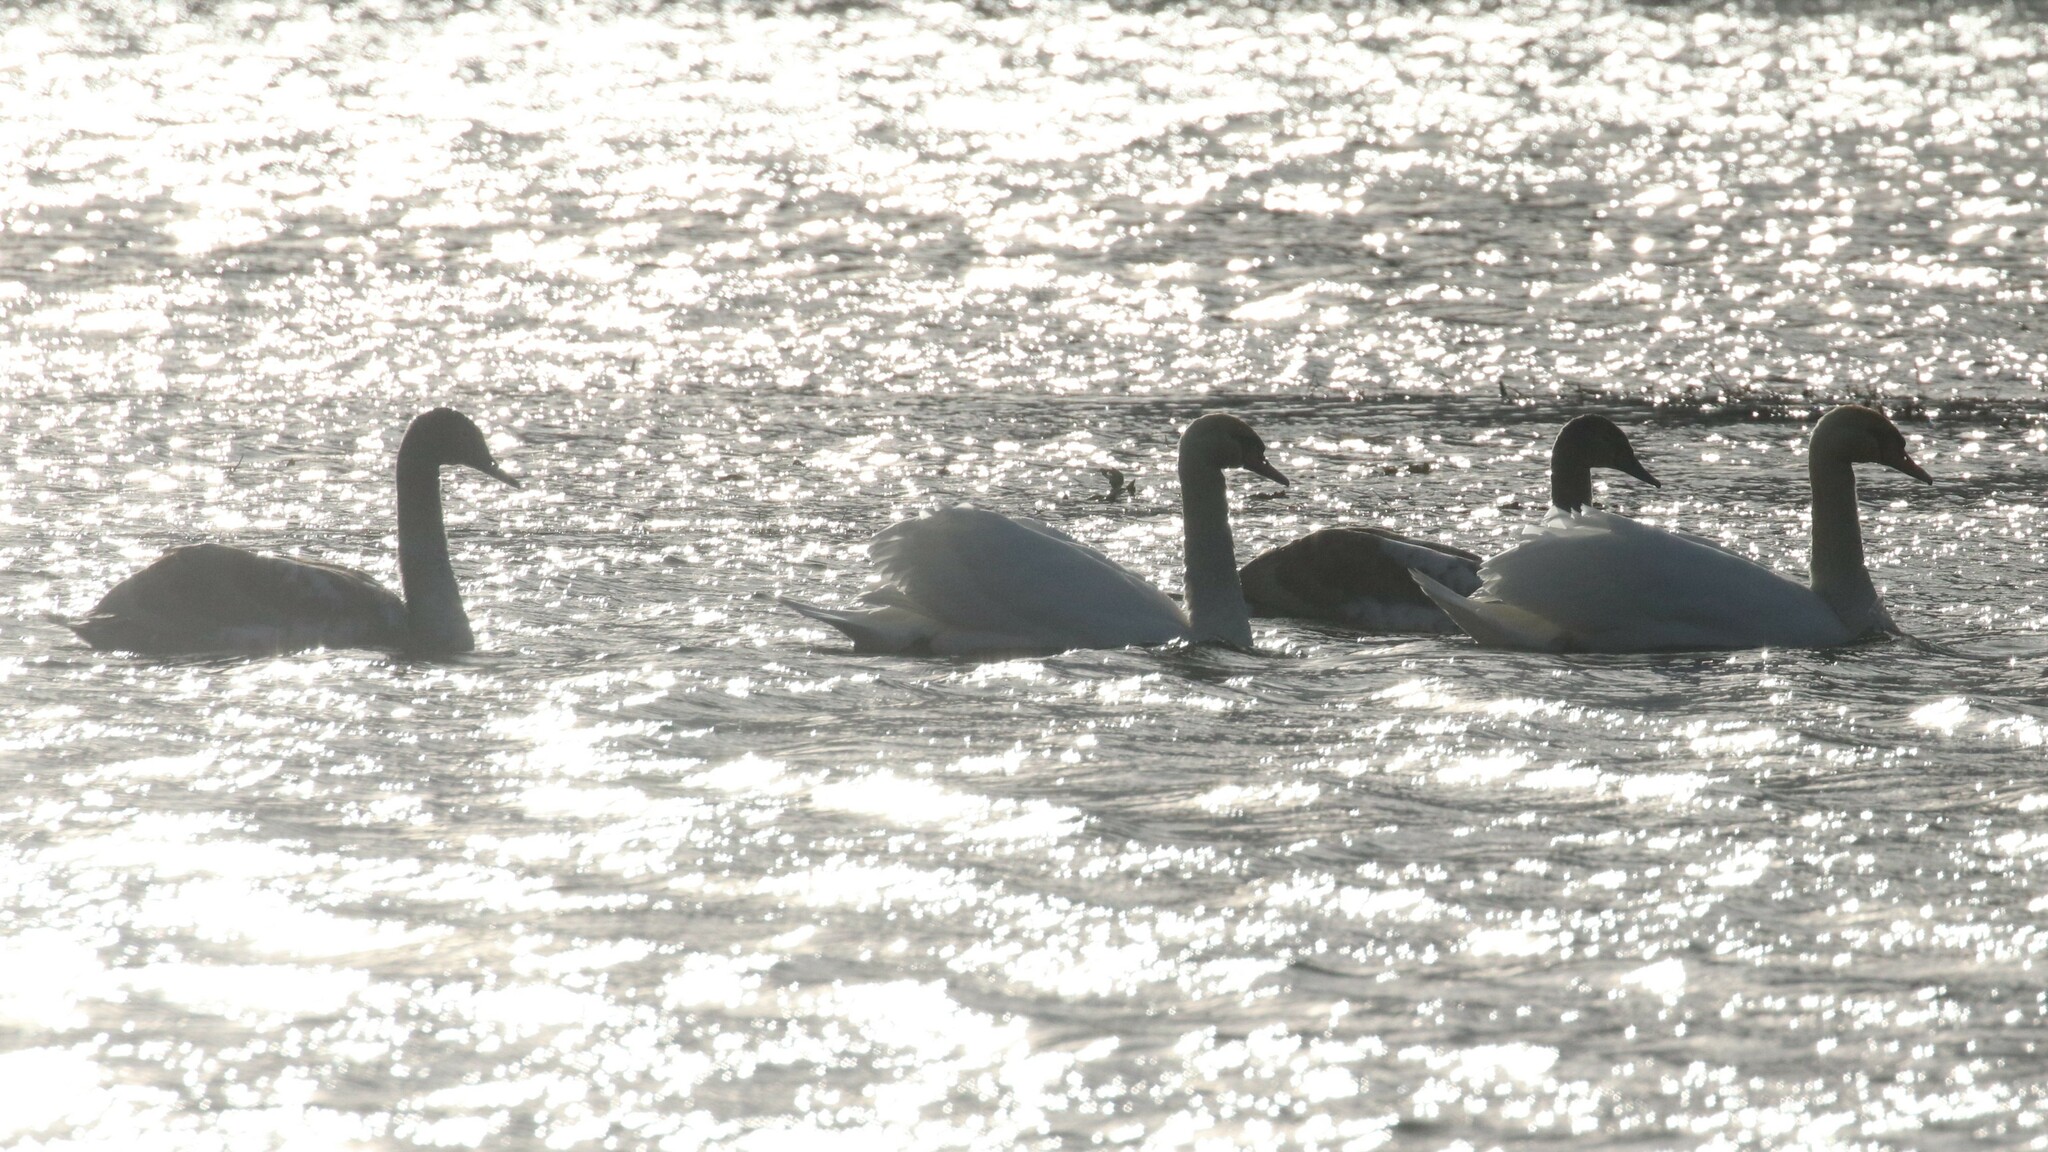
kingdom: Animalia
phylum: Chordata
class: Aves
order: Anseriformes
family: Anatidae
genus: Cygnus
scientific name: Cygnus olor
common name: Mute swan
